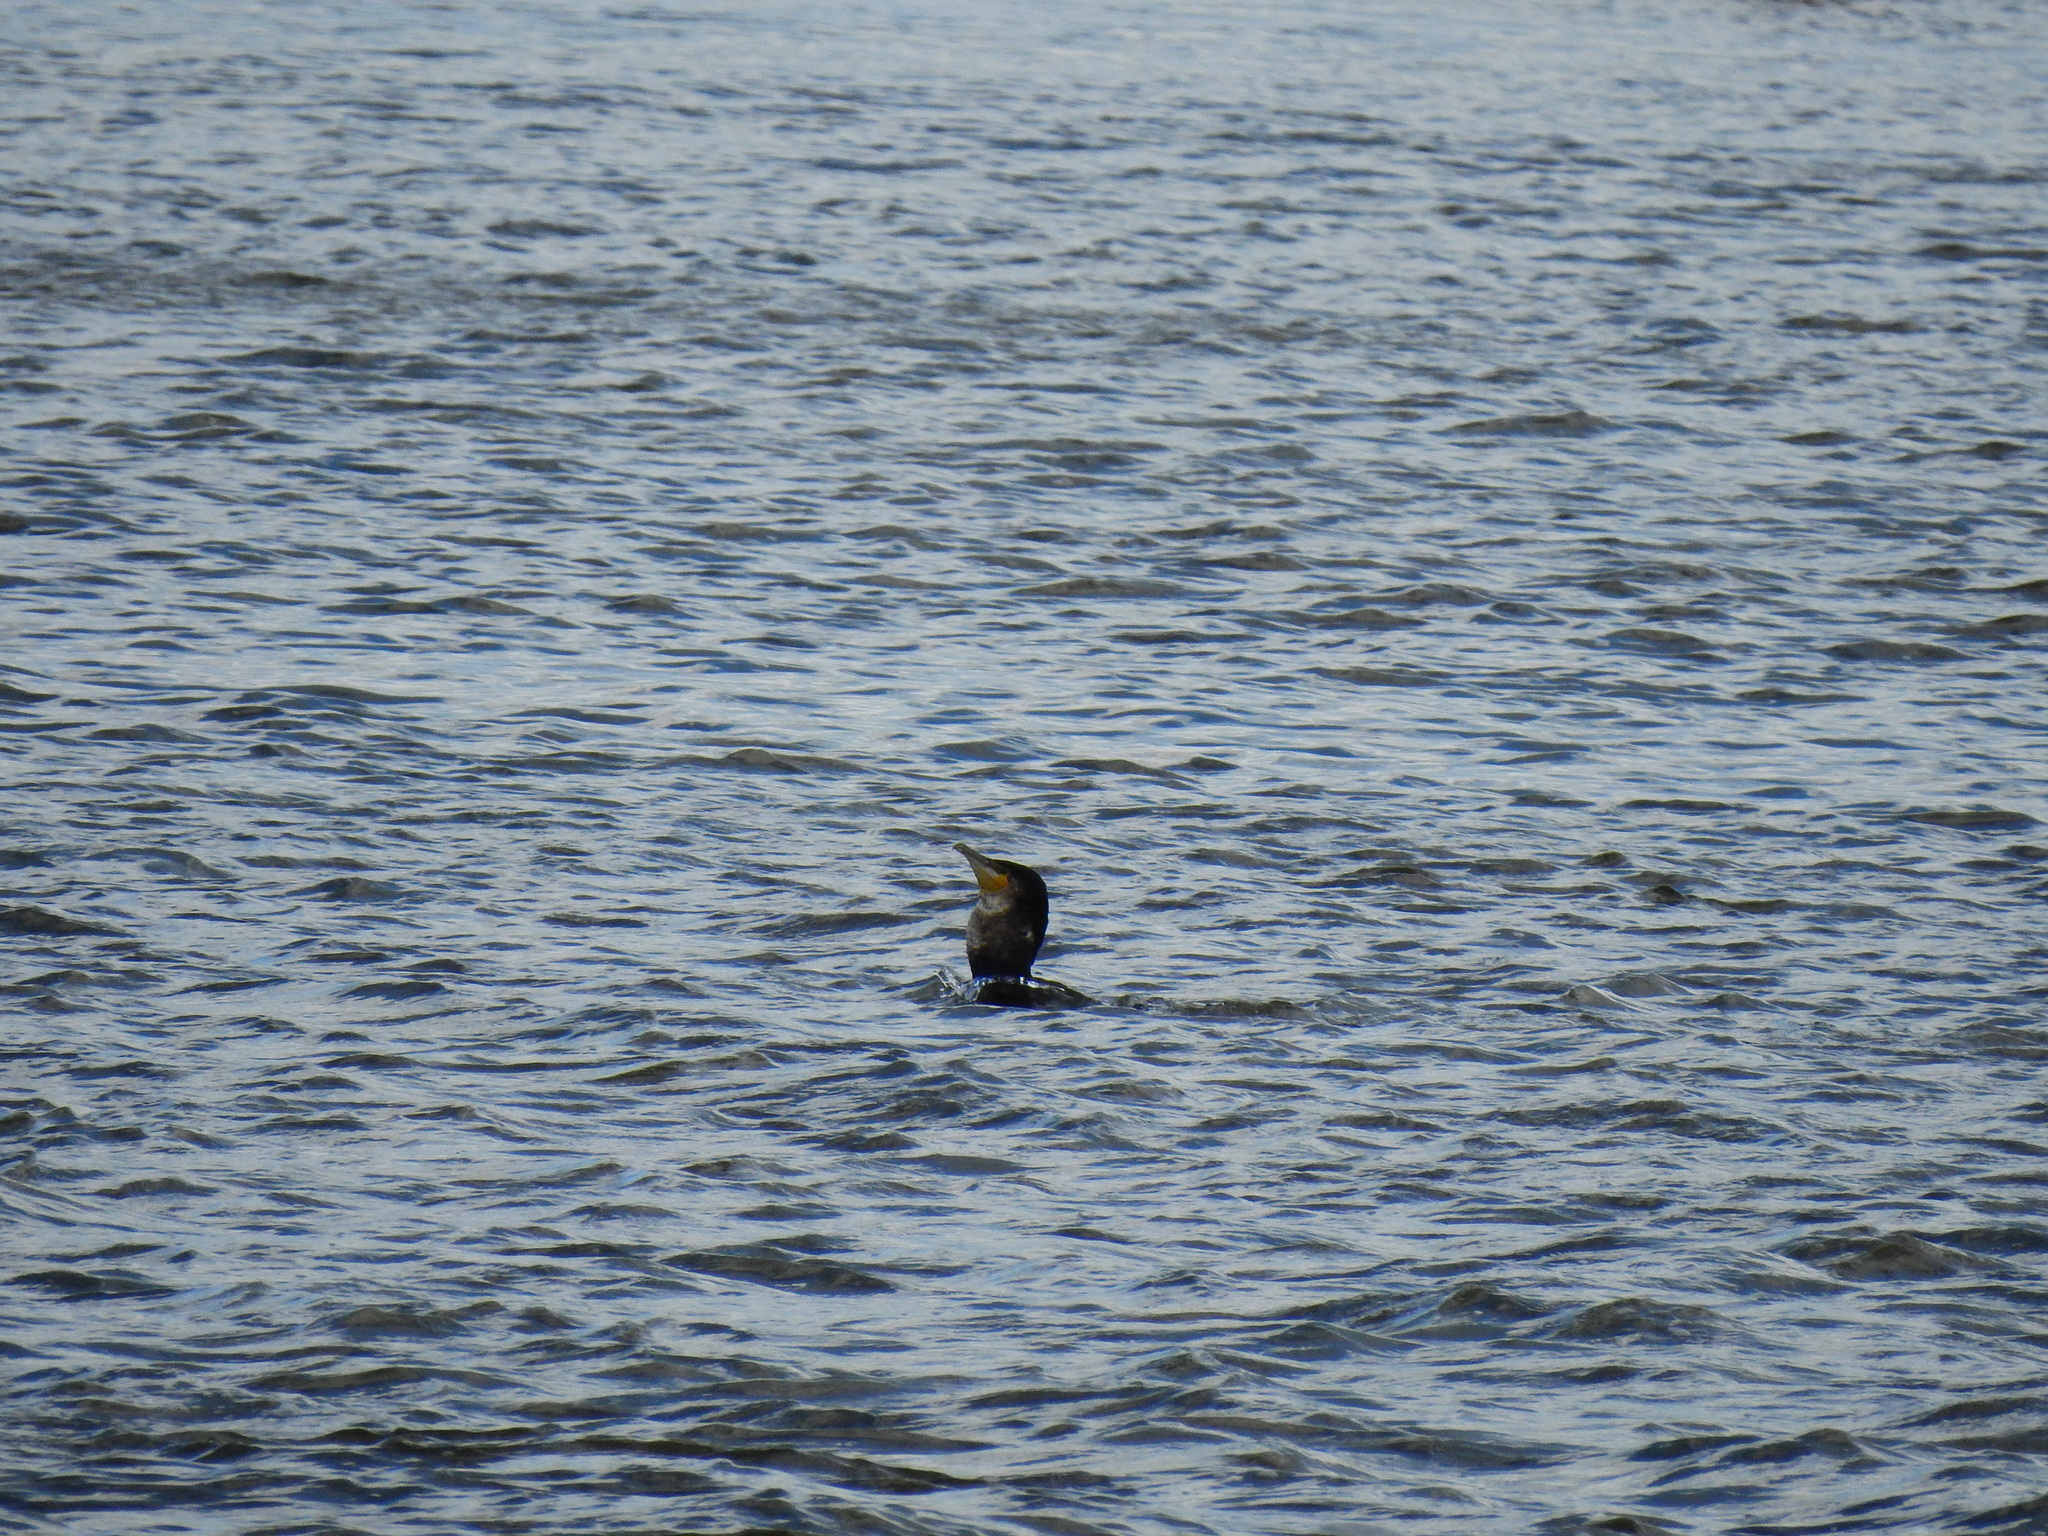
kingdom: Animalia
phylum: Chordata
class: Aves
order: Suliformes
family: Phalacrocoracidae
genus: Phalacrocorax
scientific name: Phalacrocorax carbo
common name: Great cormorant
